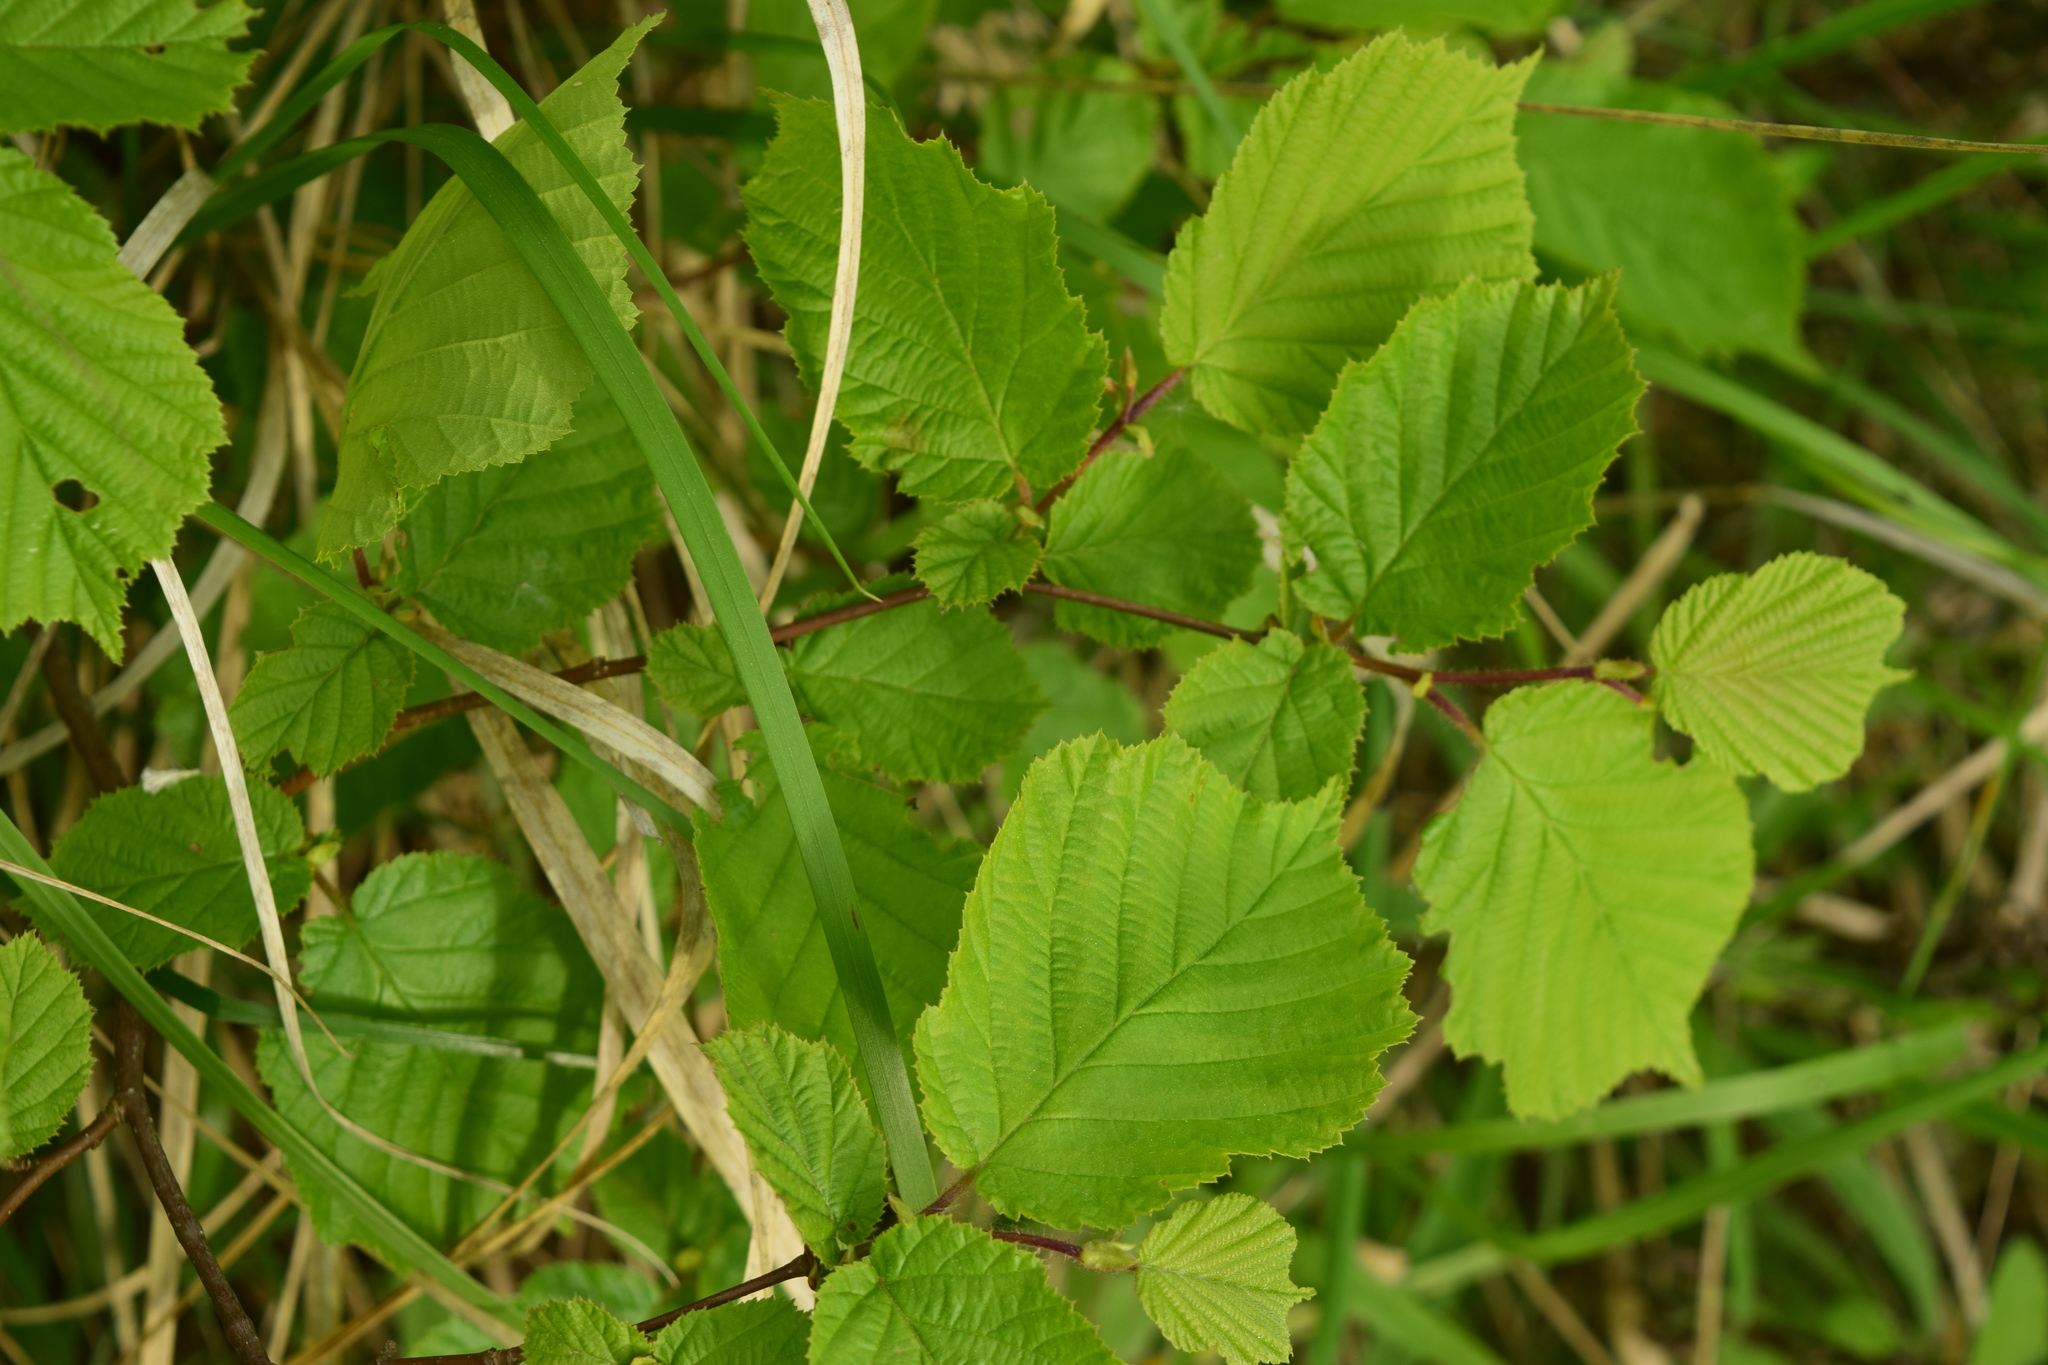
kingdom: Plantae
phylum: Tracheophyta
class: Magnoliopsida
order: Fagales
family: Betulaceae
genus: Corylus
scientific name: Corylus avellana
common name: European hazel
